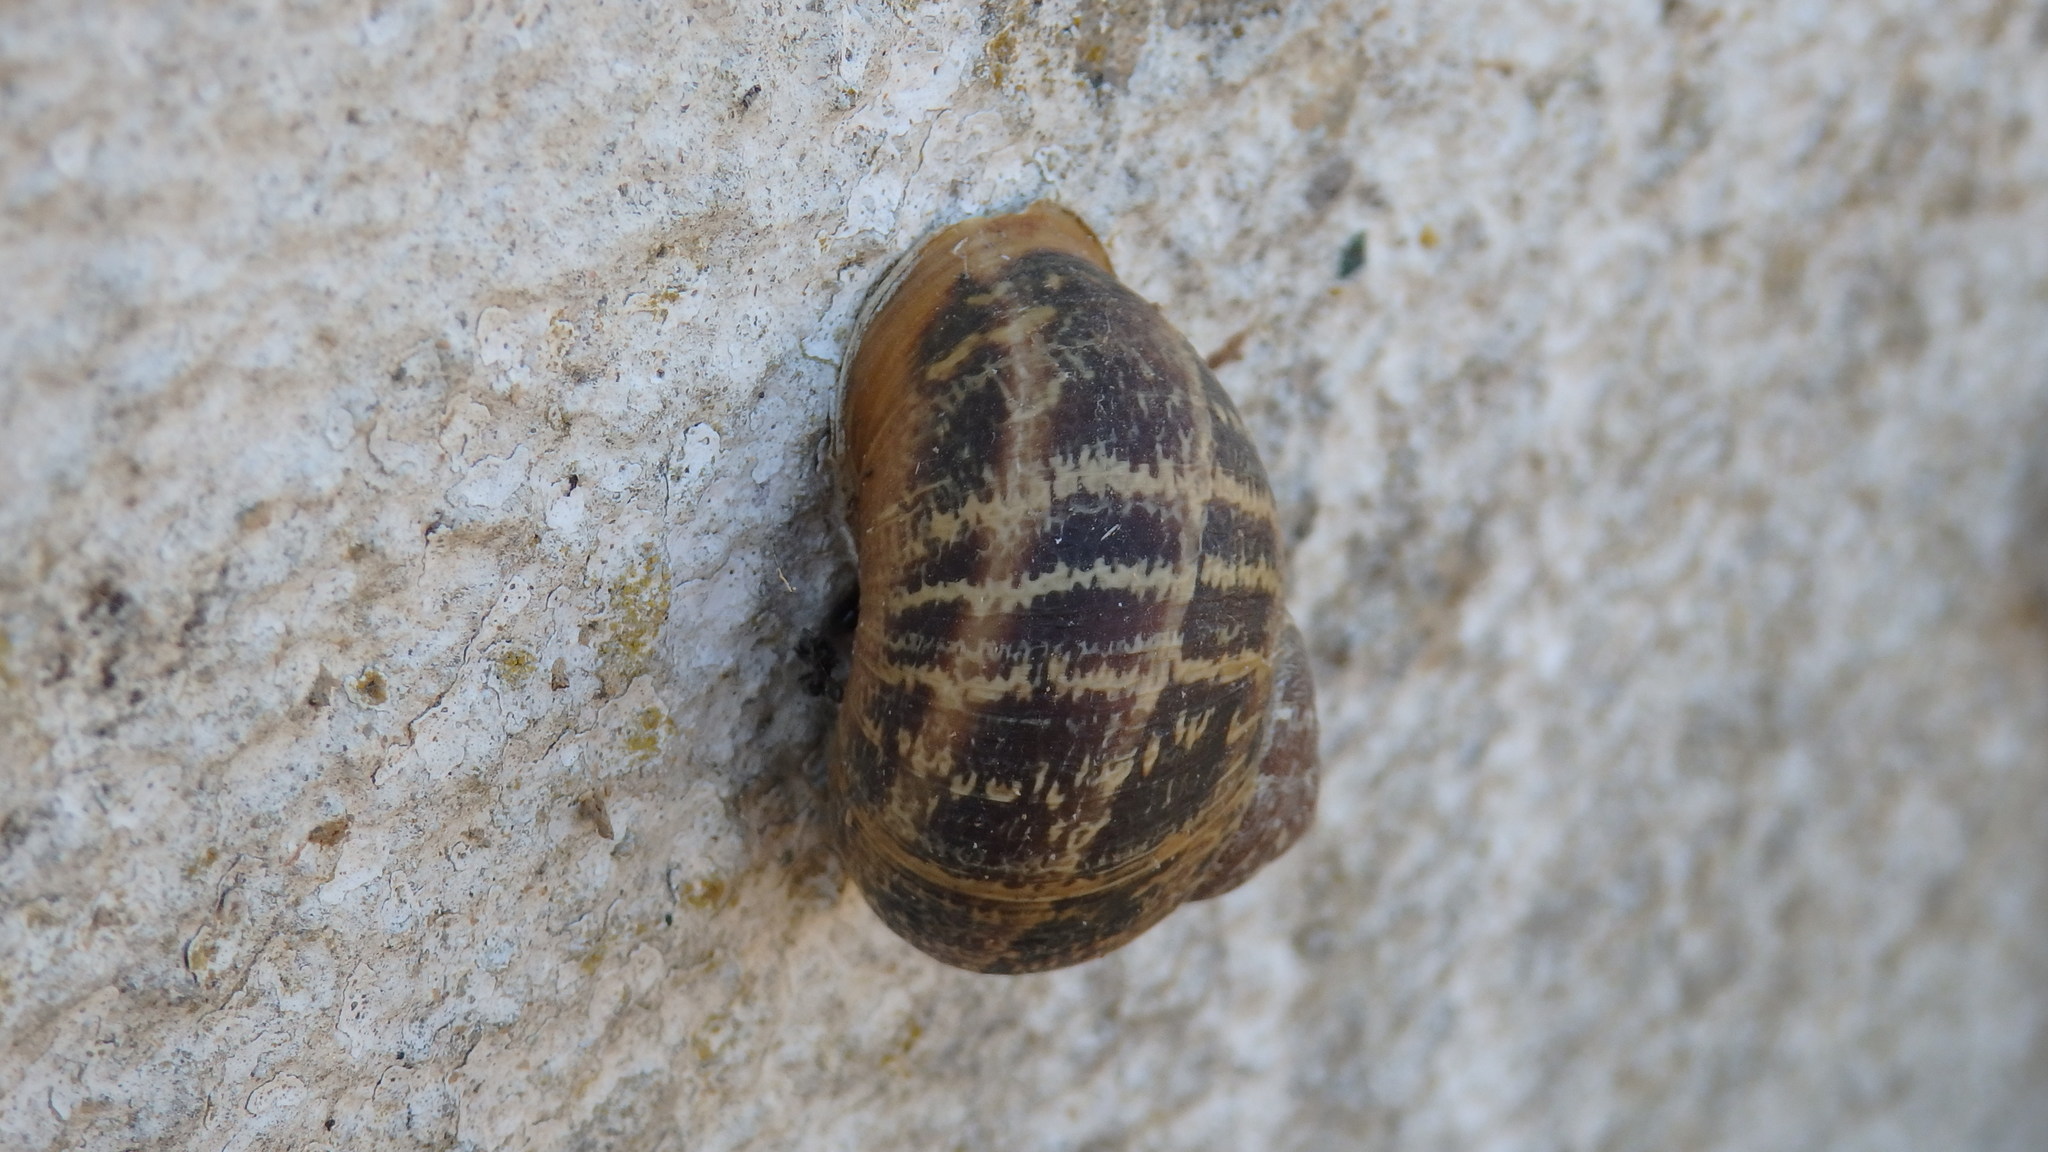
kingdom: Animalia
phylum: Mollusca
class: Gastropoda
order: Stylommatophora
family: Helicidae
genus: Cornu
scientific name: Cornu aspersum
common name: Brown garden snail
